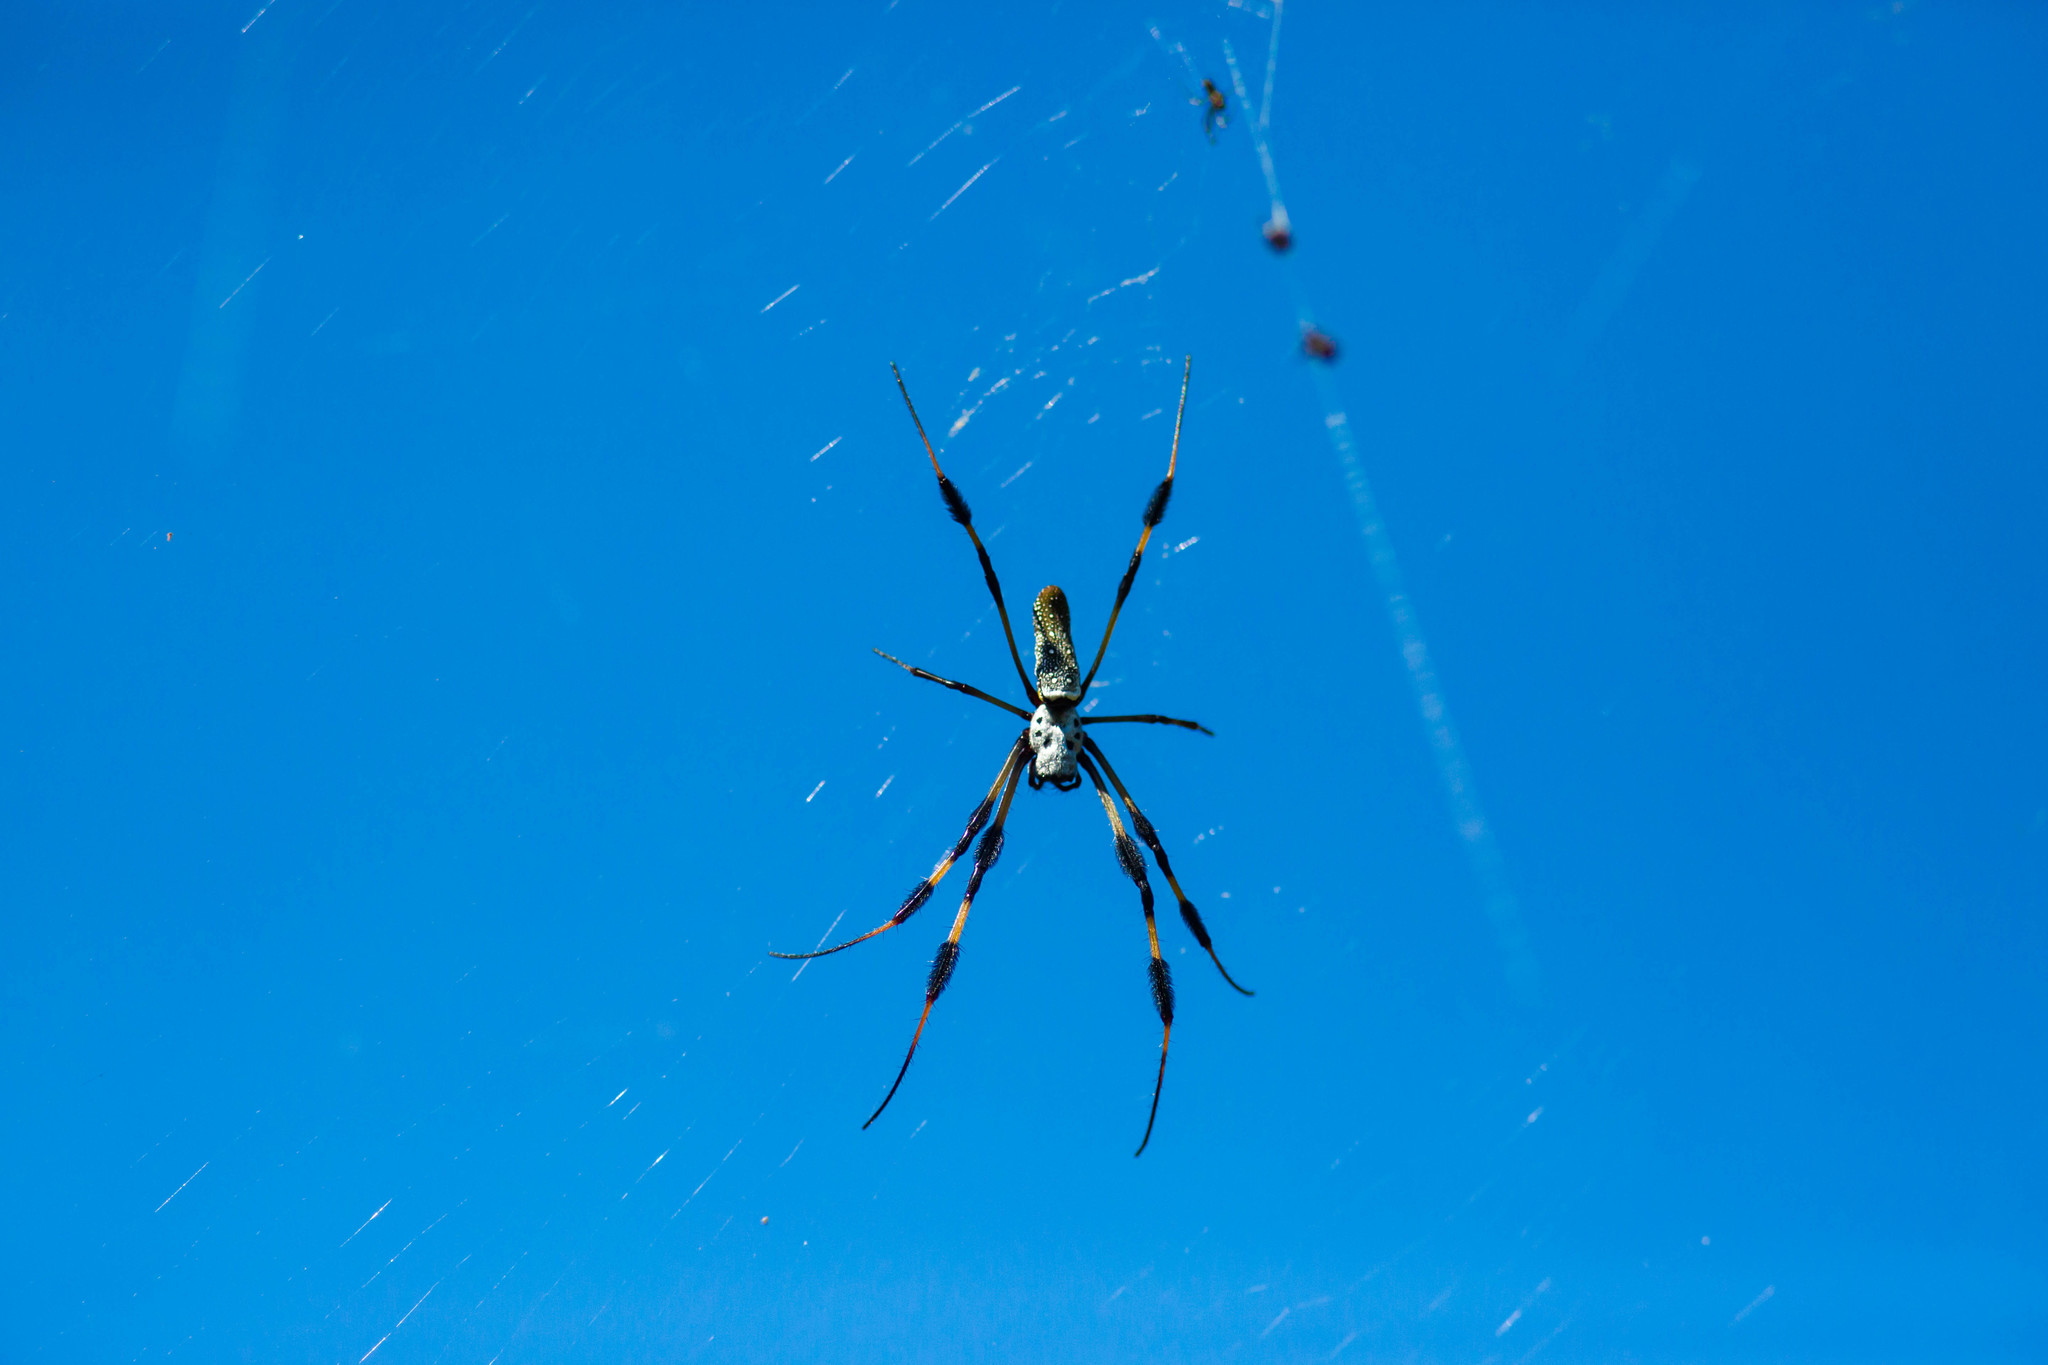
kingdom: Animalia
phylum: Arthropoda
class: Arachnida
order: Araneae
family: Araneidae
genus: Trichonephila
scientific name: Trichonephila clavipes
